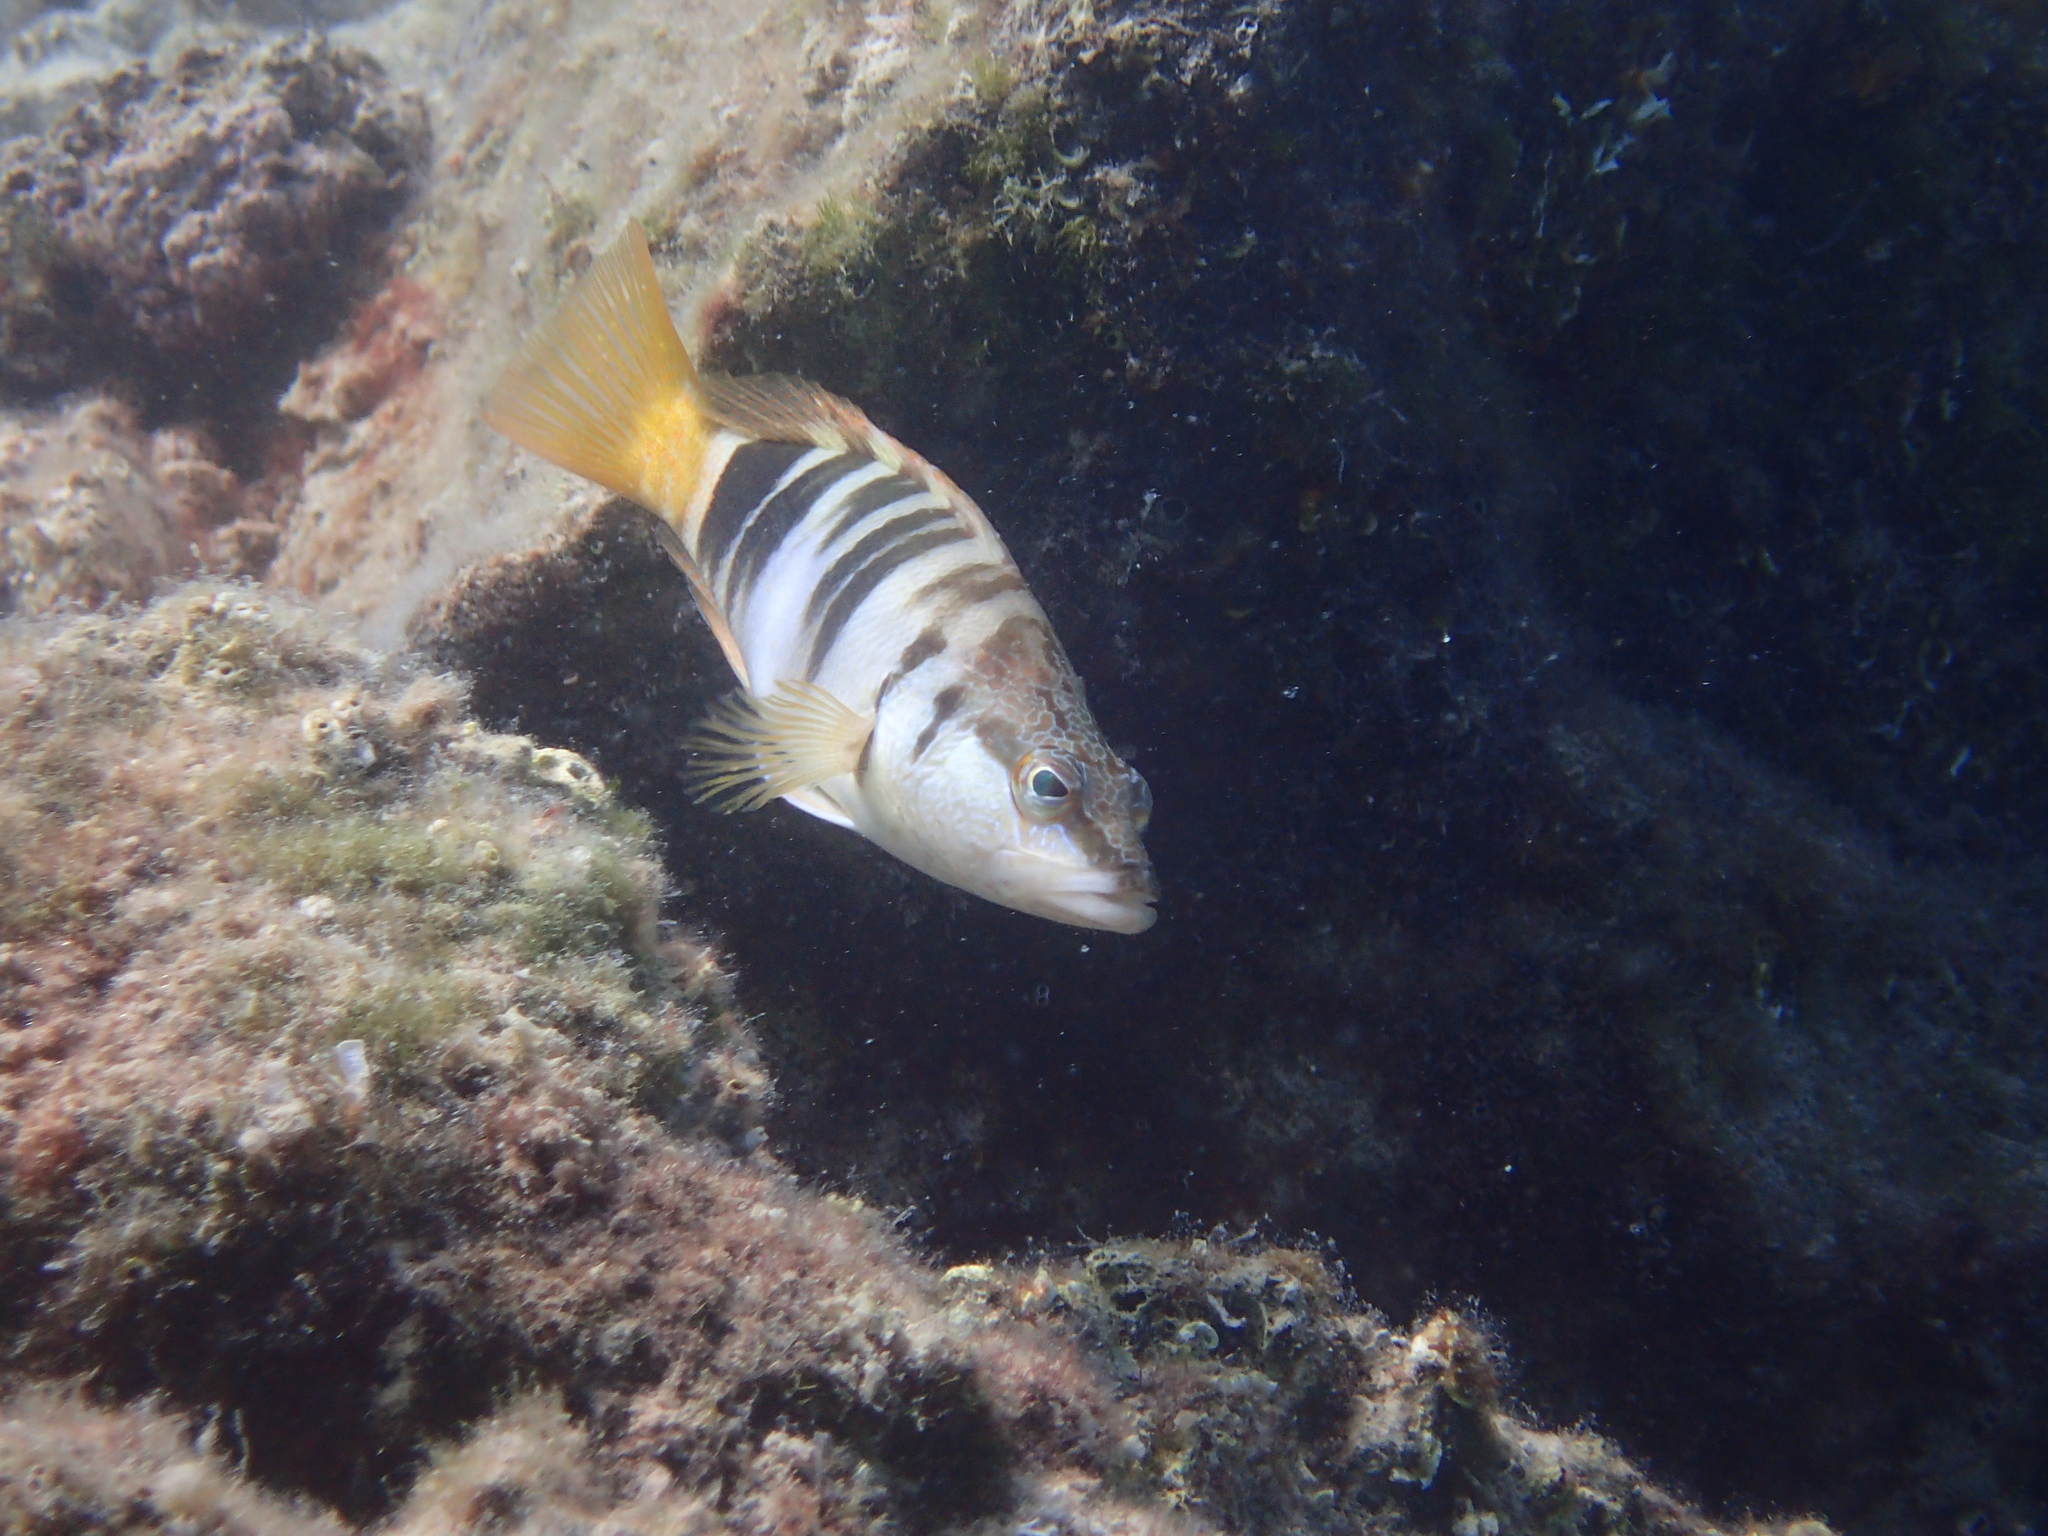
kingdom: Animalia
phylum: Chordata
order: Perciformes
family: Serranidae
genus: Serranus
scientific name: Serranus scriba
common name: Painted comber
